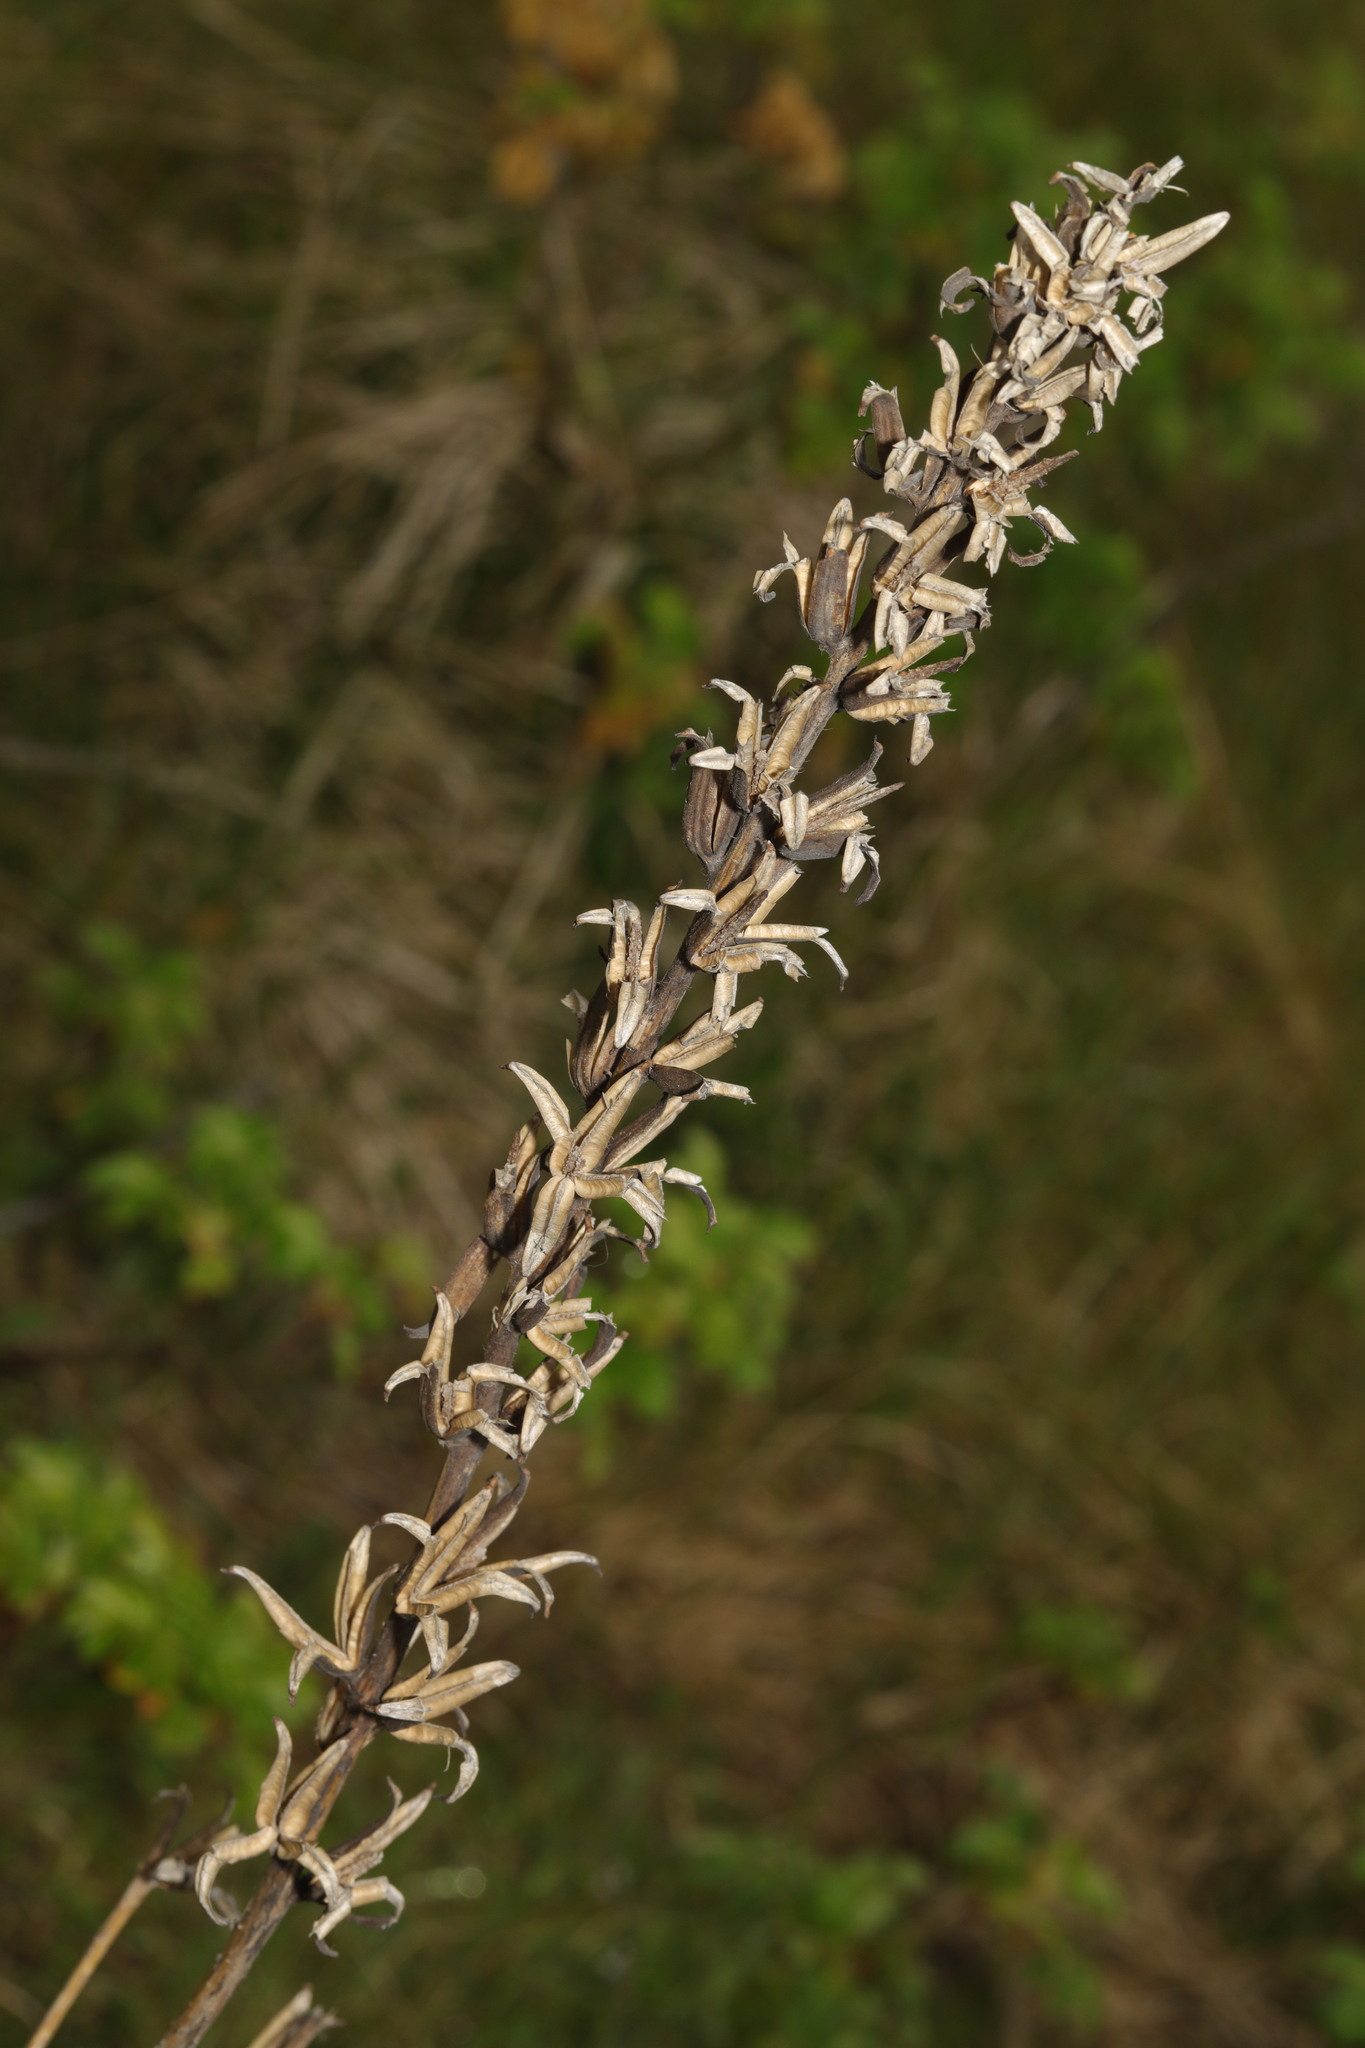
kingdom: Plantae
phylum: Tracheophyta
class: Magnoliopsida
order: Myrtales
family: Onagraceae
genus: Oenothera
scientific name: Oenothera
